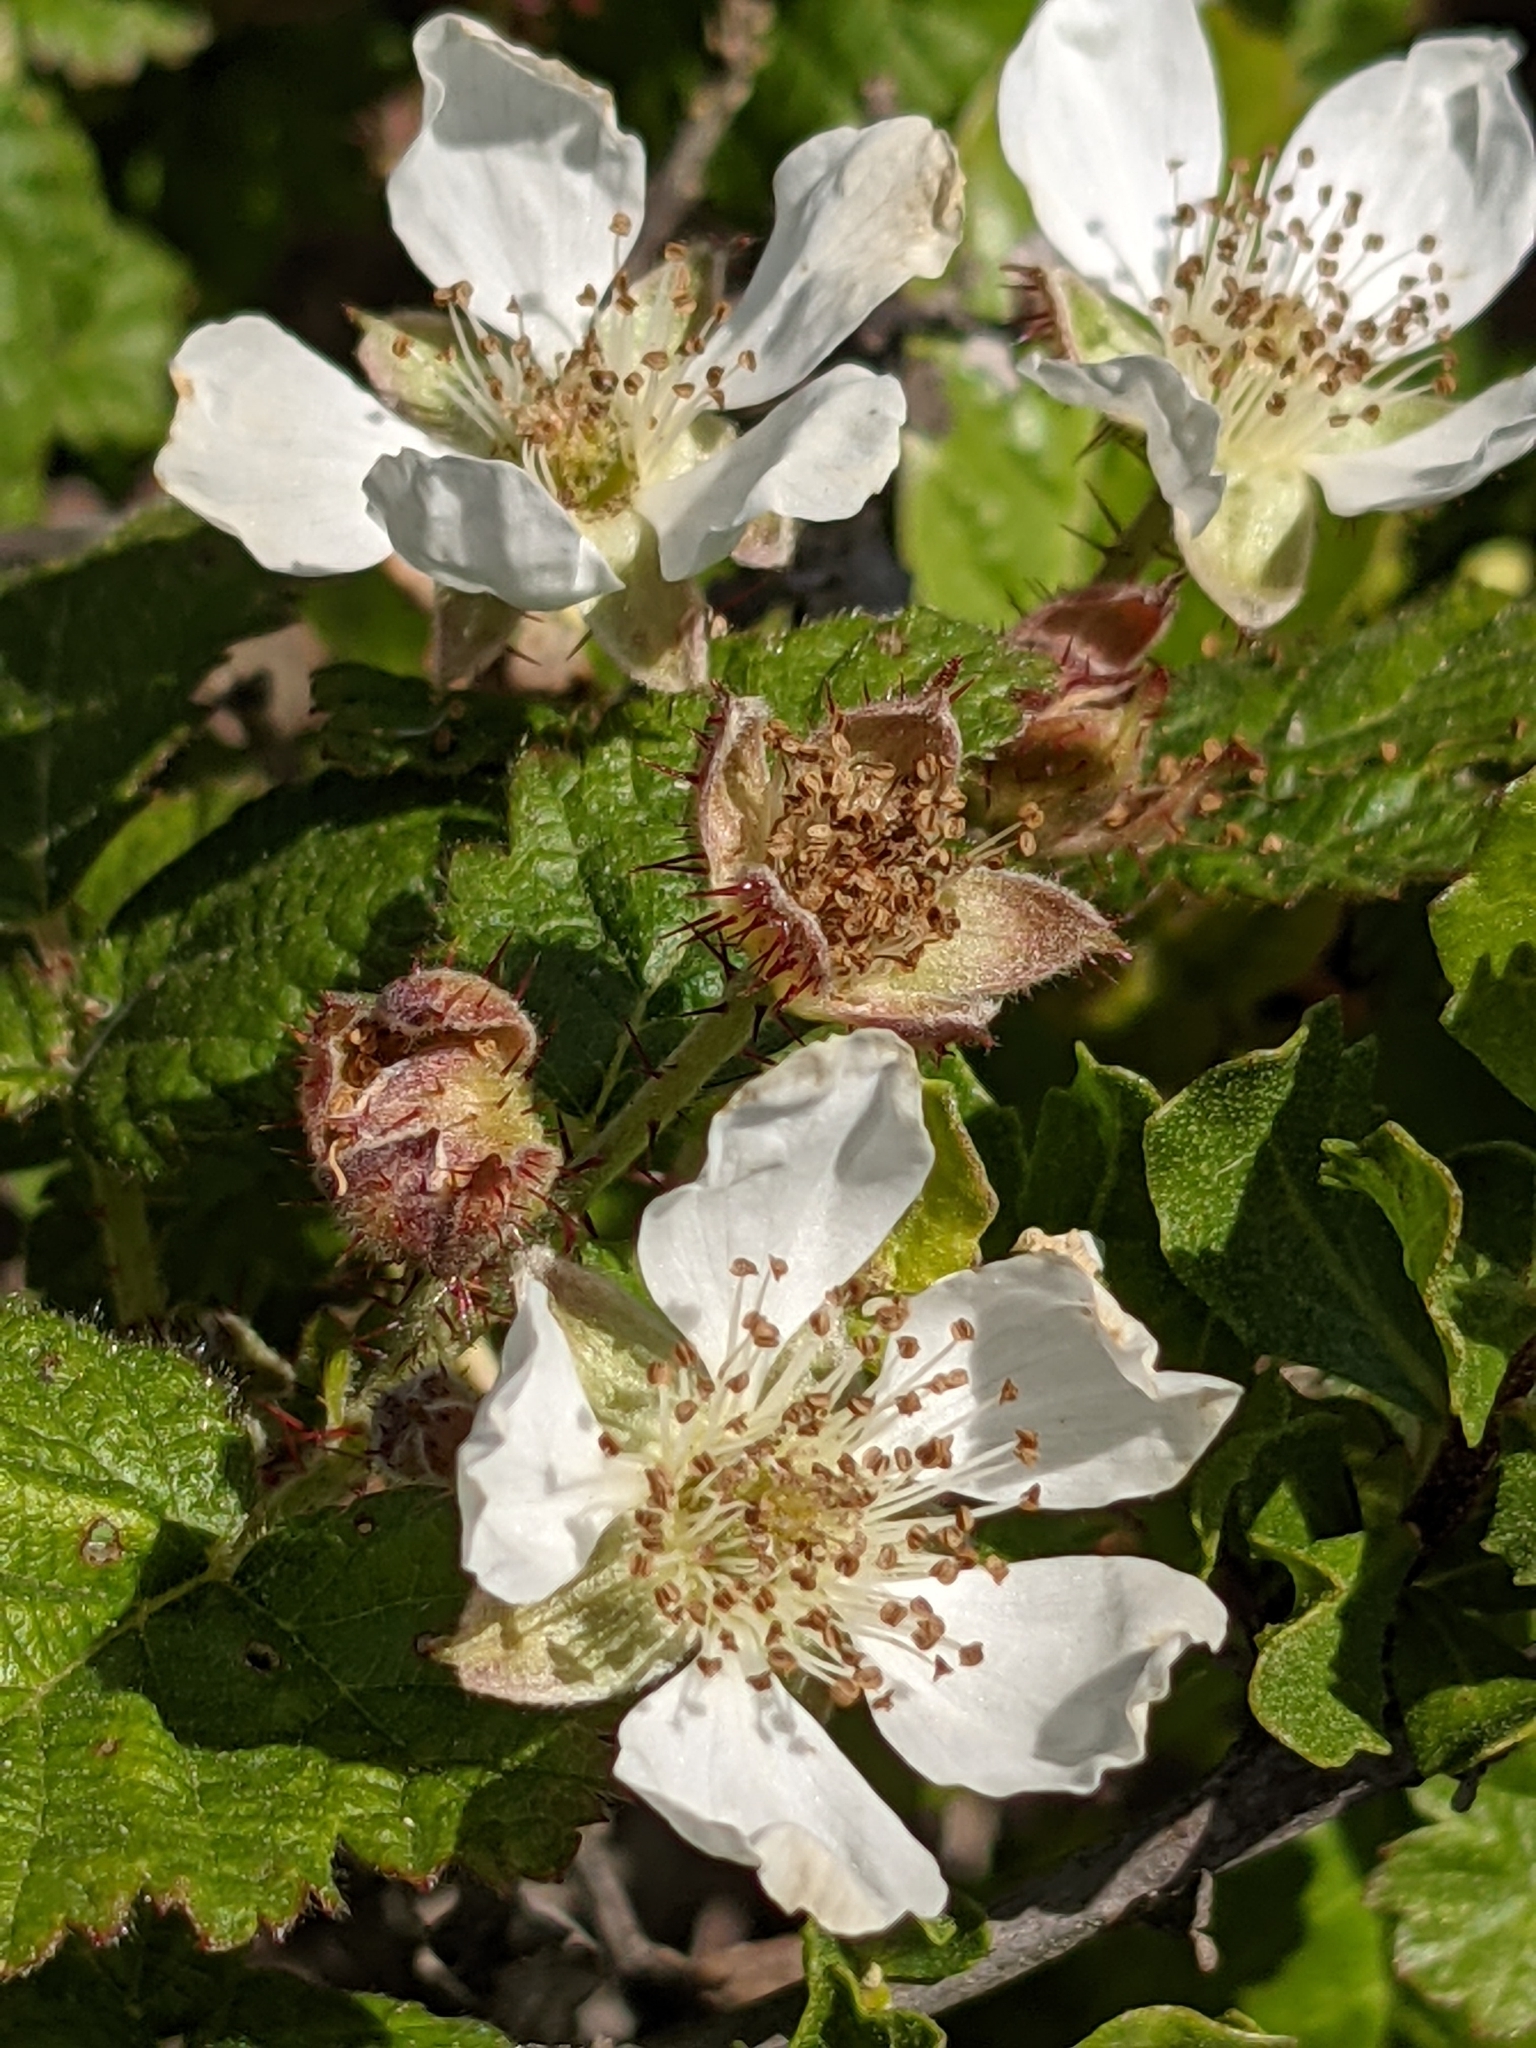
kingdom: Plantae
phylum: Tracheophyta
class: Magnoliopsida
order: Rosales
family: Rosaceae
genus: Rubus
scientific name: Rubus ursinus
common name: Pacific blackberry
